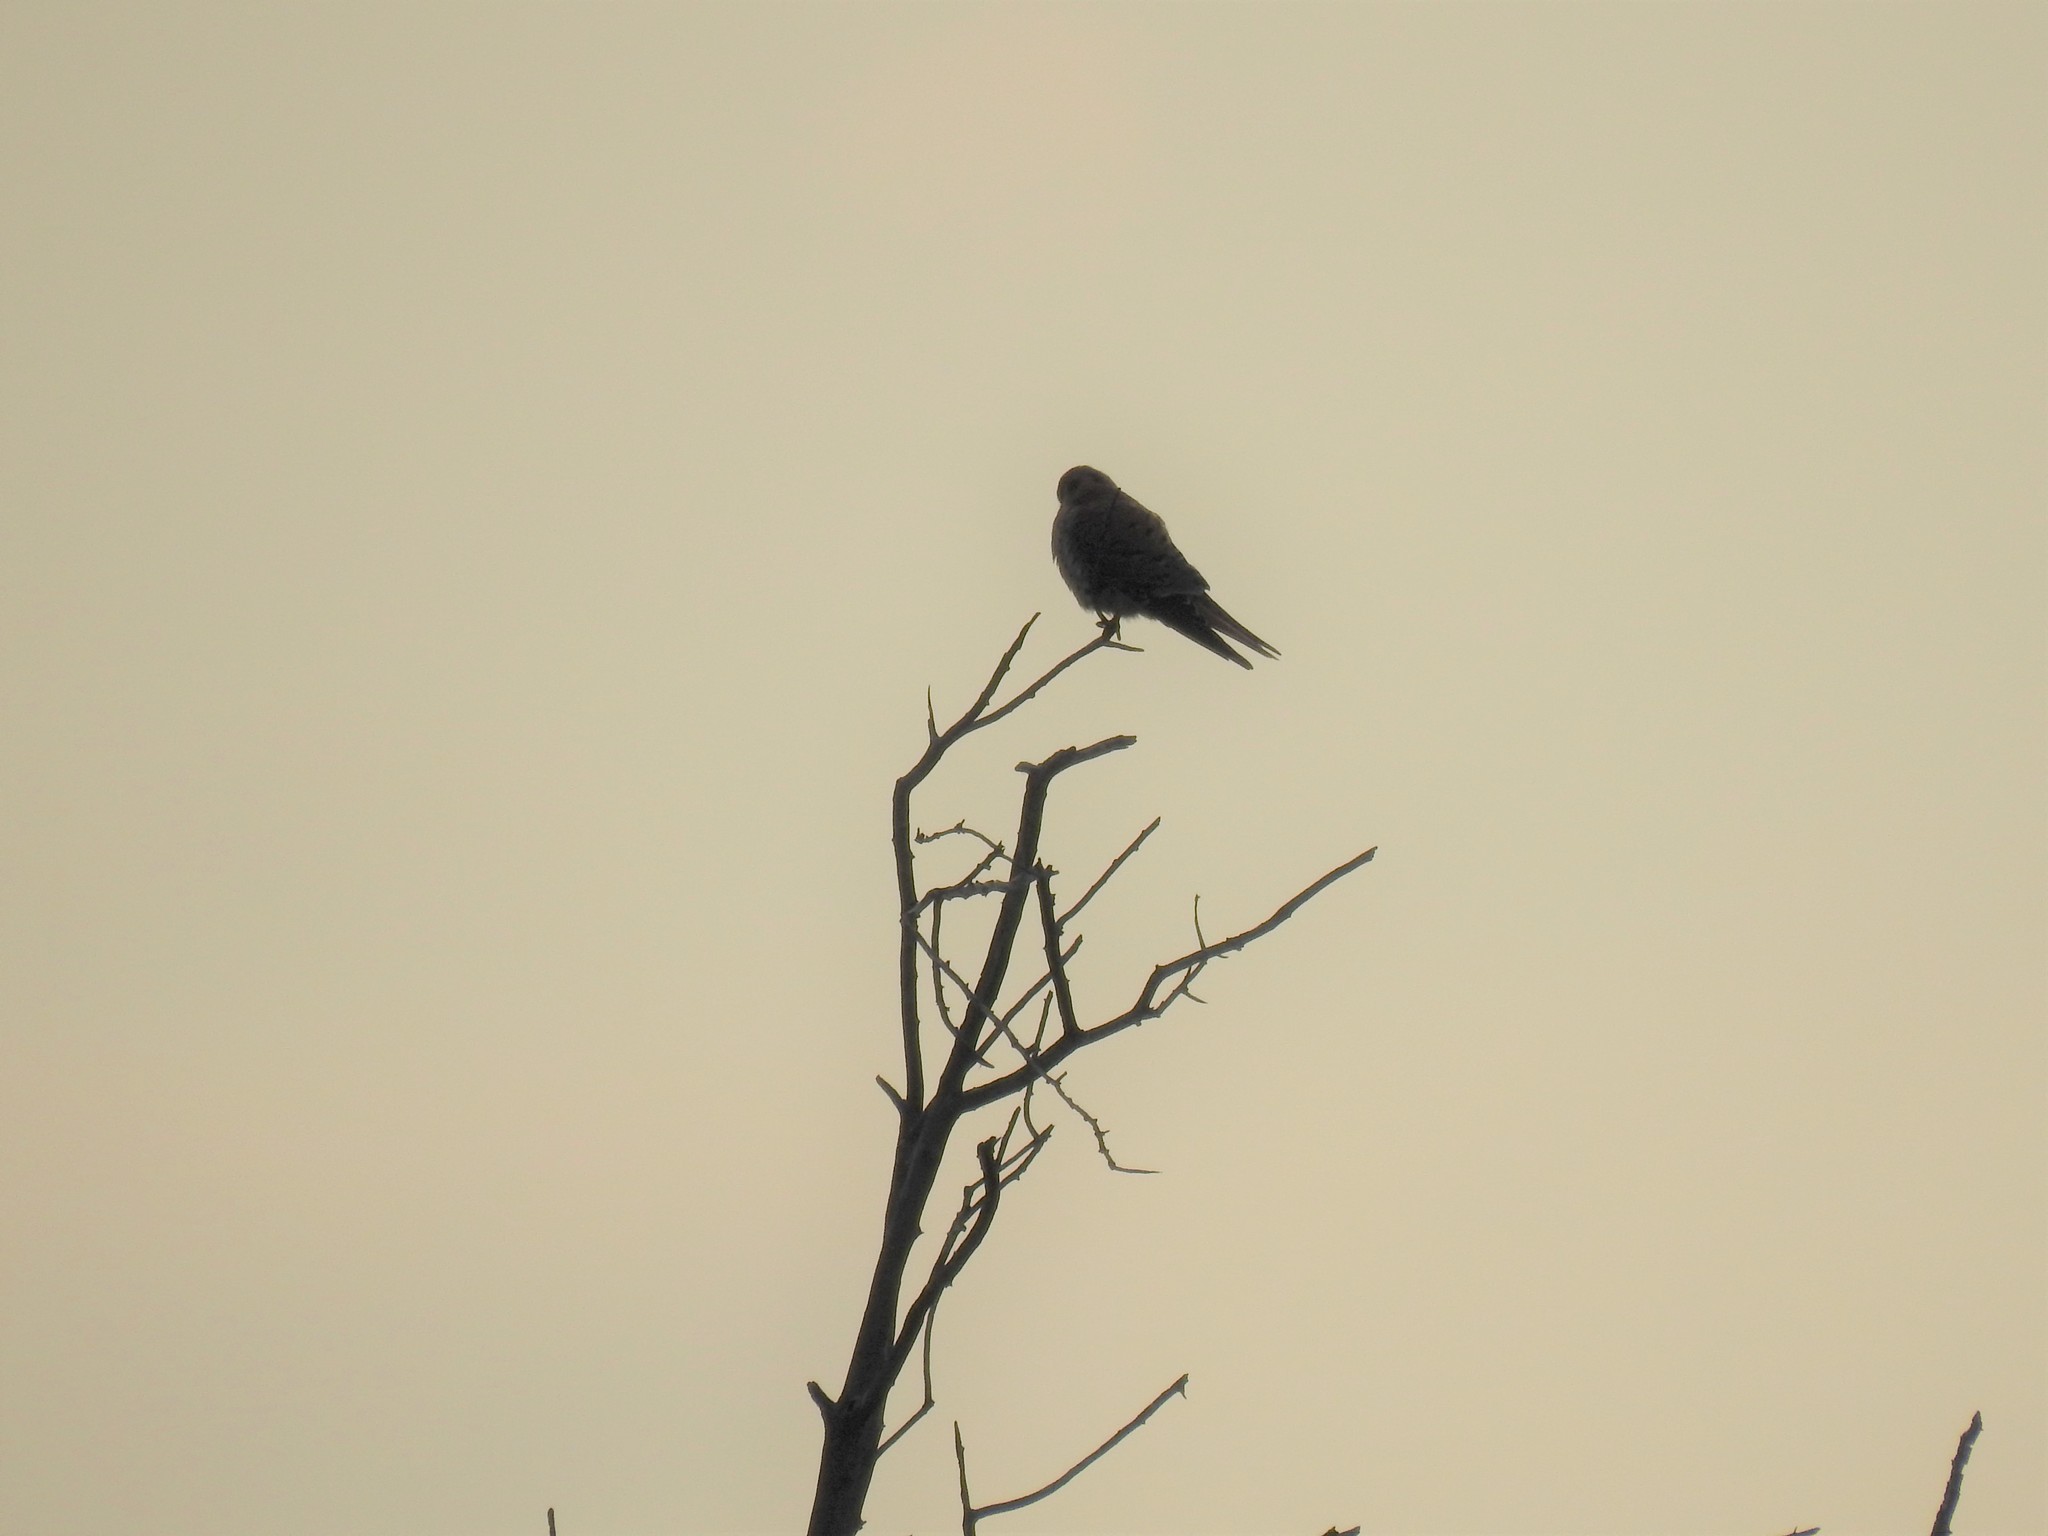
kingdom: Animalia
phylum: Chordata
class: Aves
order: Falconiformes
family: Falconidae
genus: Falco
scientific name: Falco sparverius
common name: American kestrel
